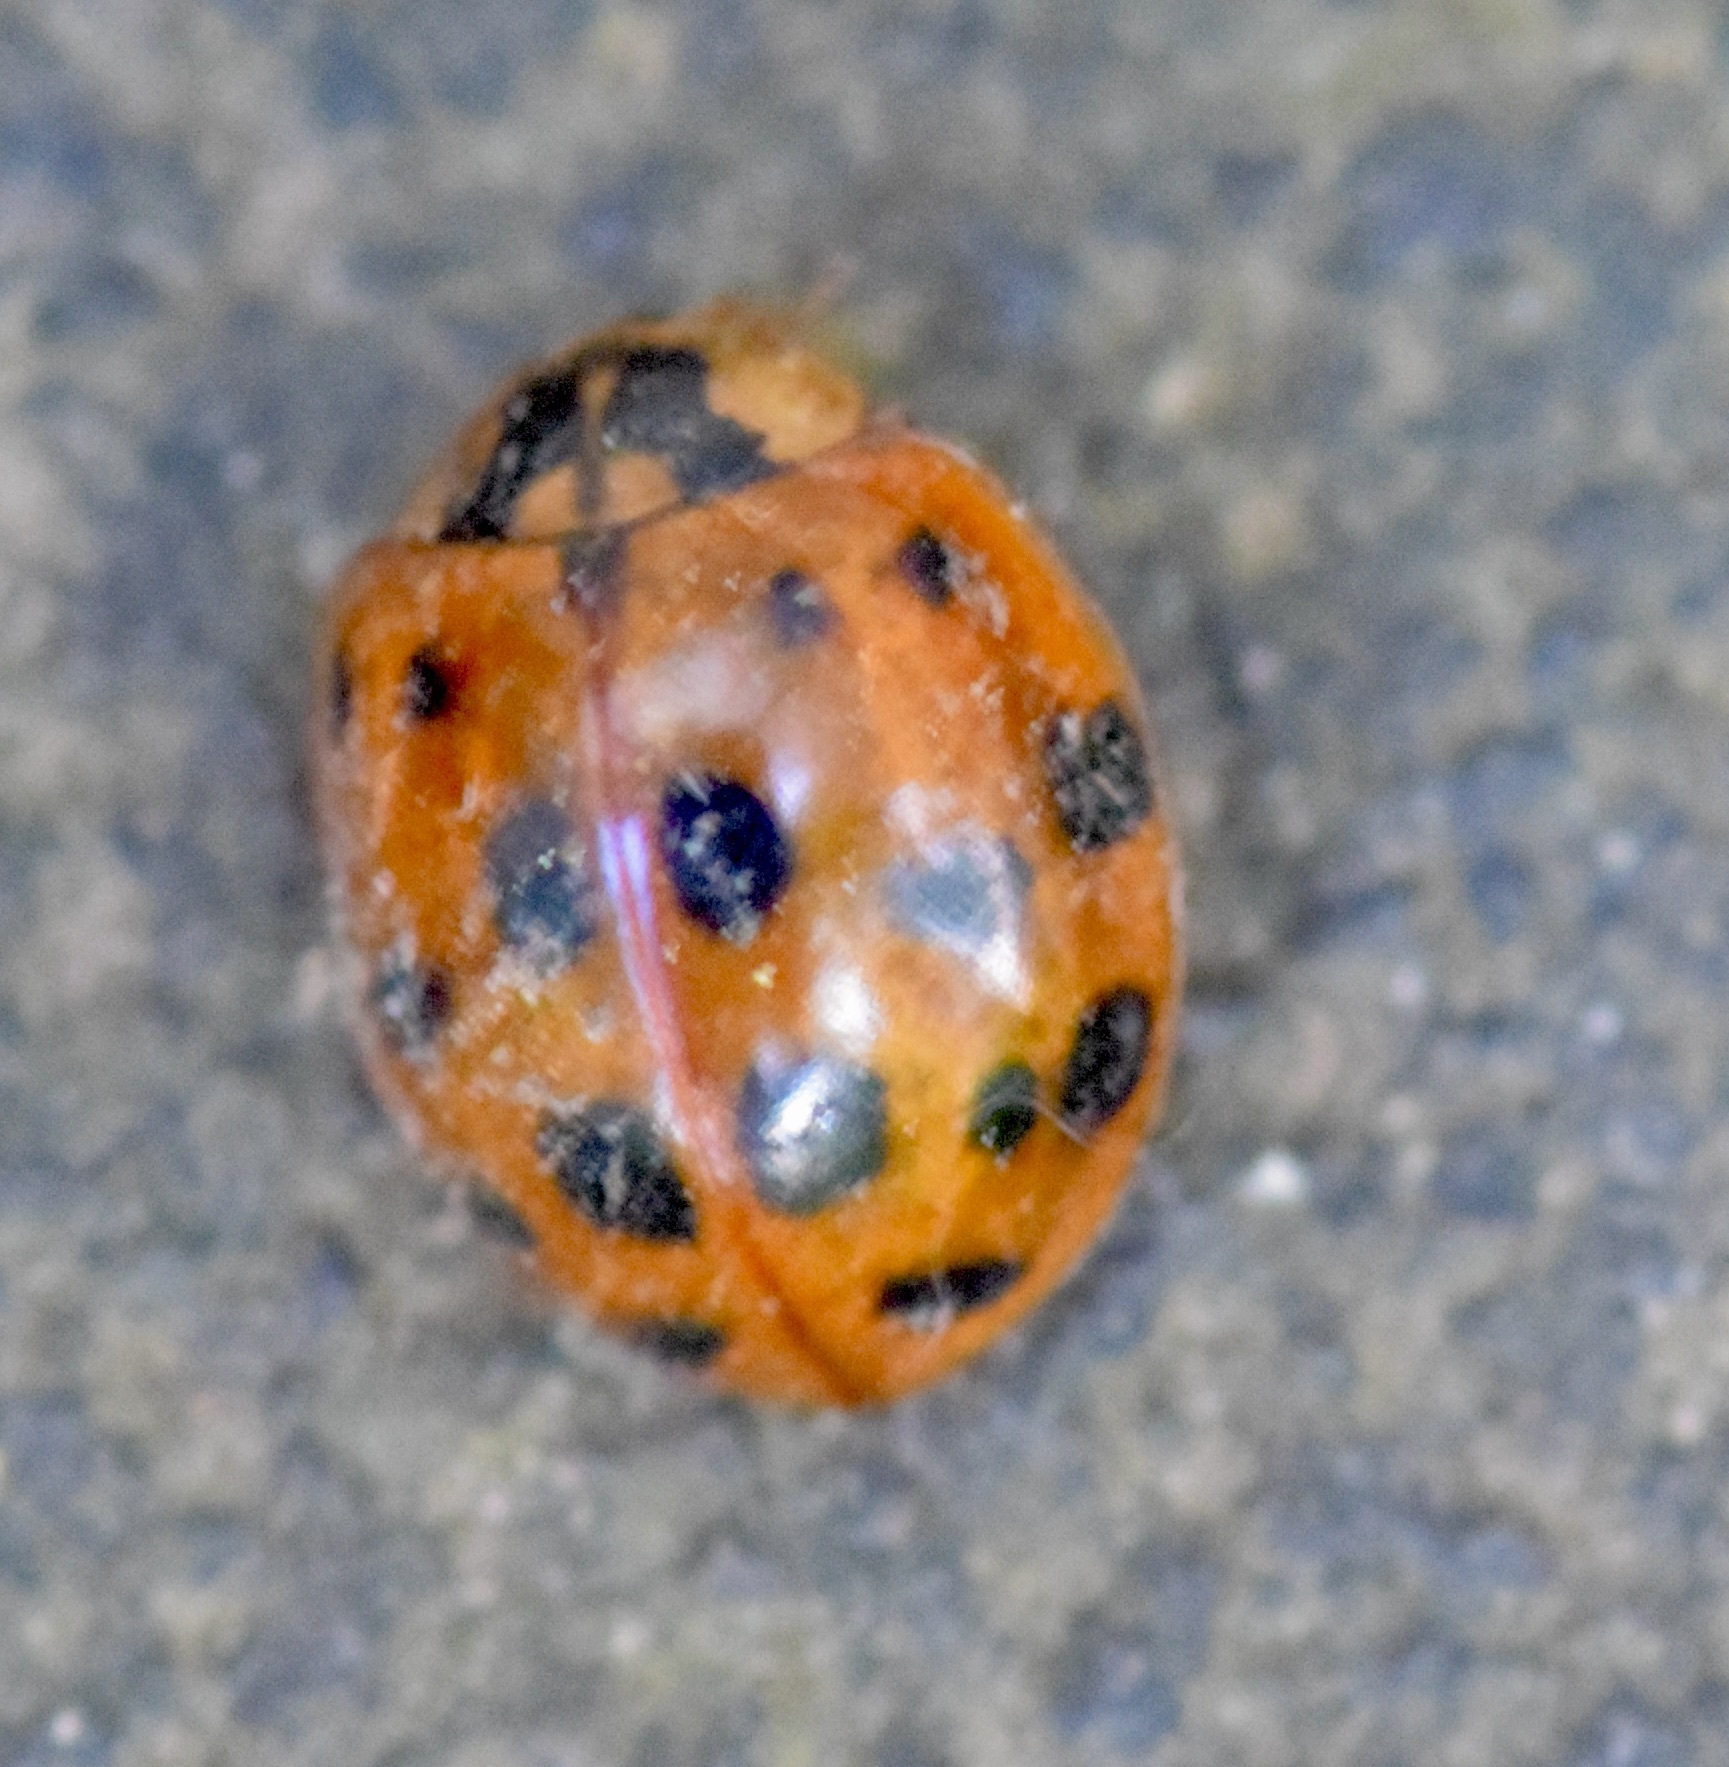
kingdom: Animalia
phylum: Arthropoda
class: Insecta
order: Coleoptera
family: Coccinellidae
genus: Harmonia
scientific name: Harmonia axyridis
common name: Harlequin ladybird
